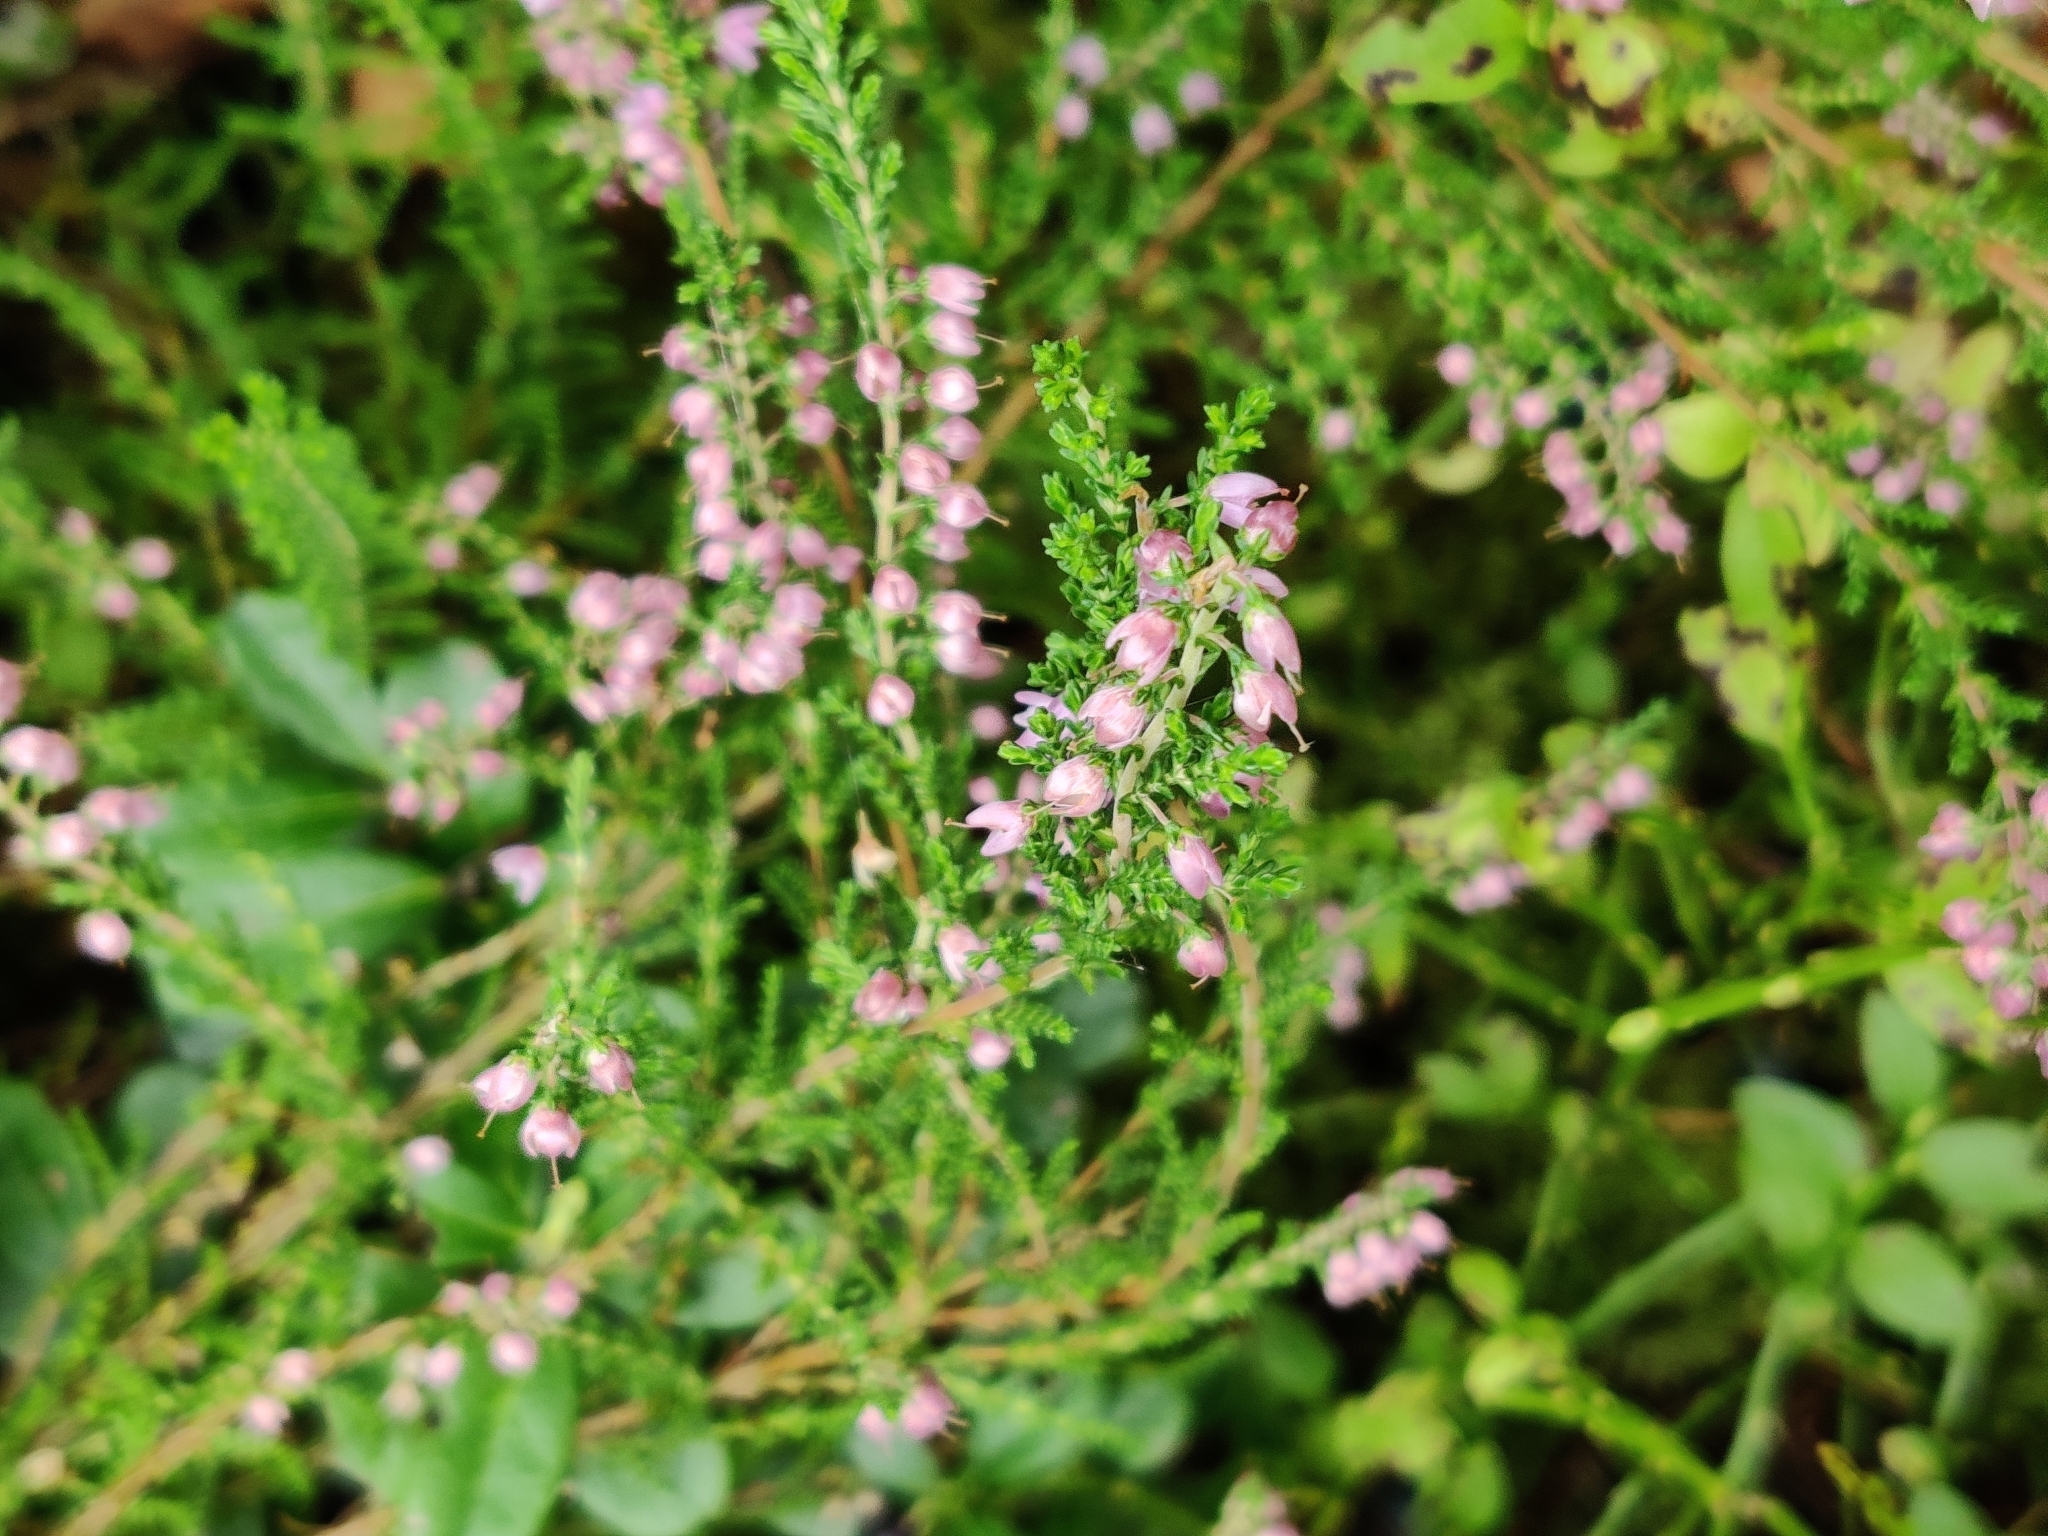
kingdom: Plantae
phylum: Tracheophyta
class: Magnoliopsida
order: Ericales
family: Ericaceae
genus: Calluna
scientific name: Calluna vulgaris
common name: Heather
